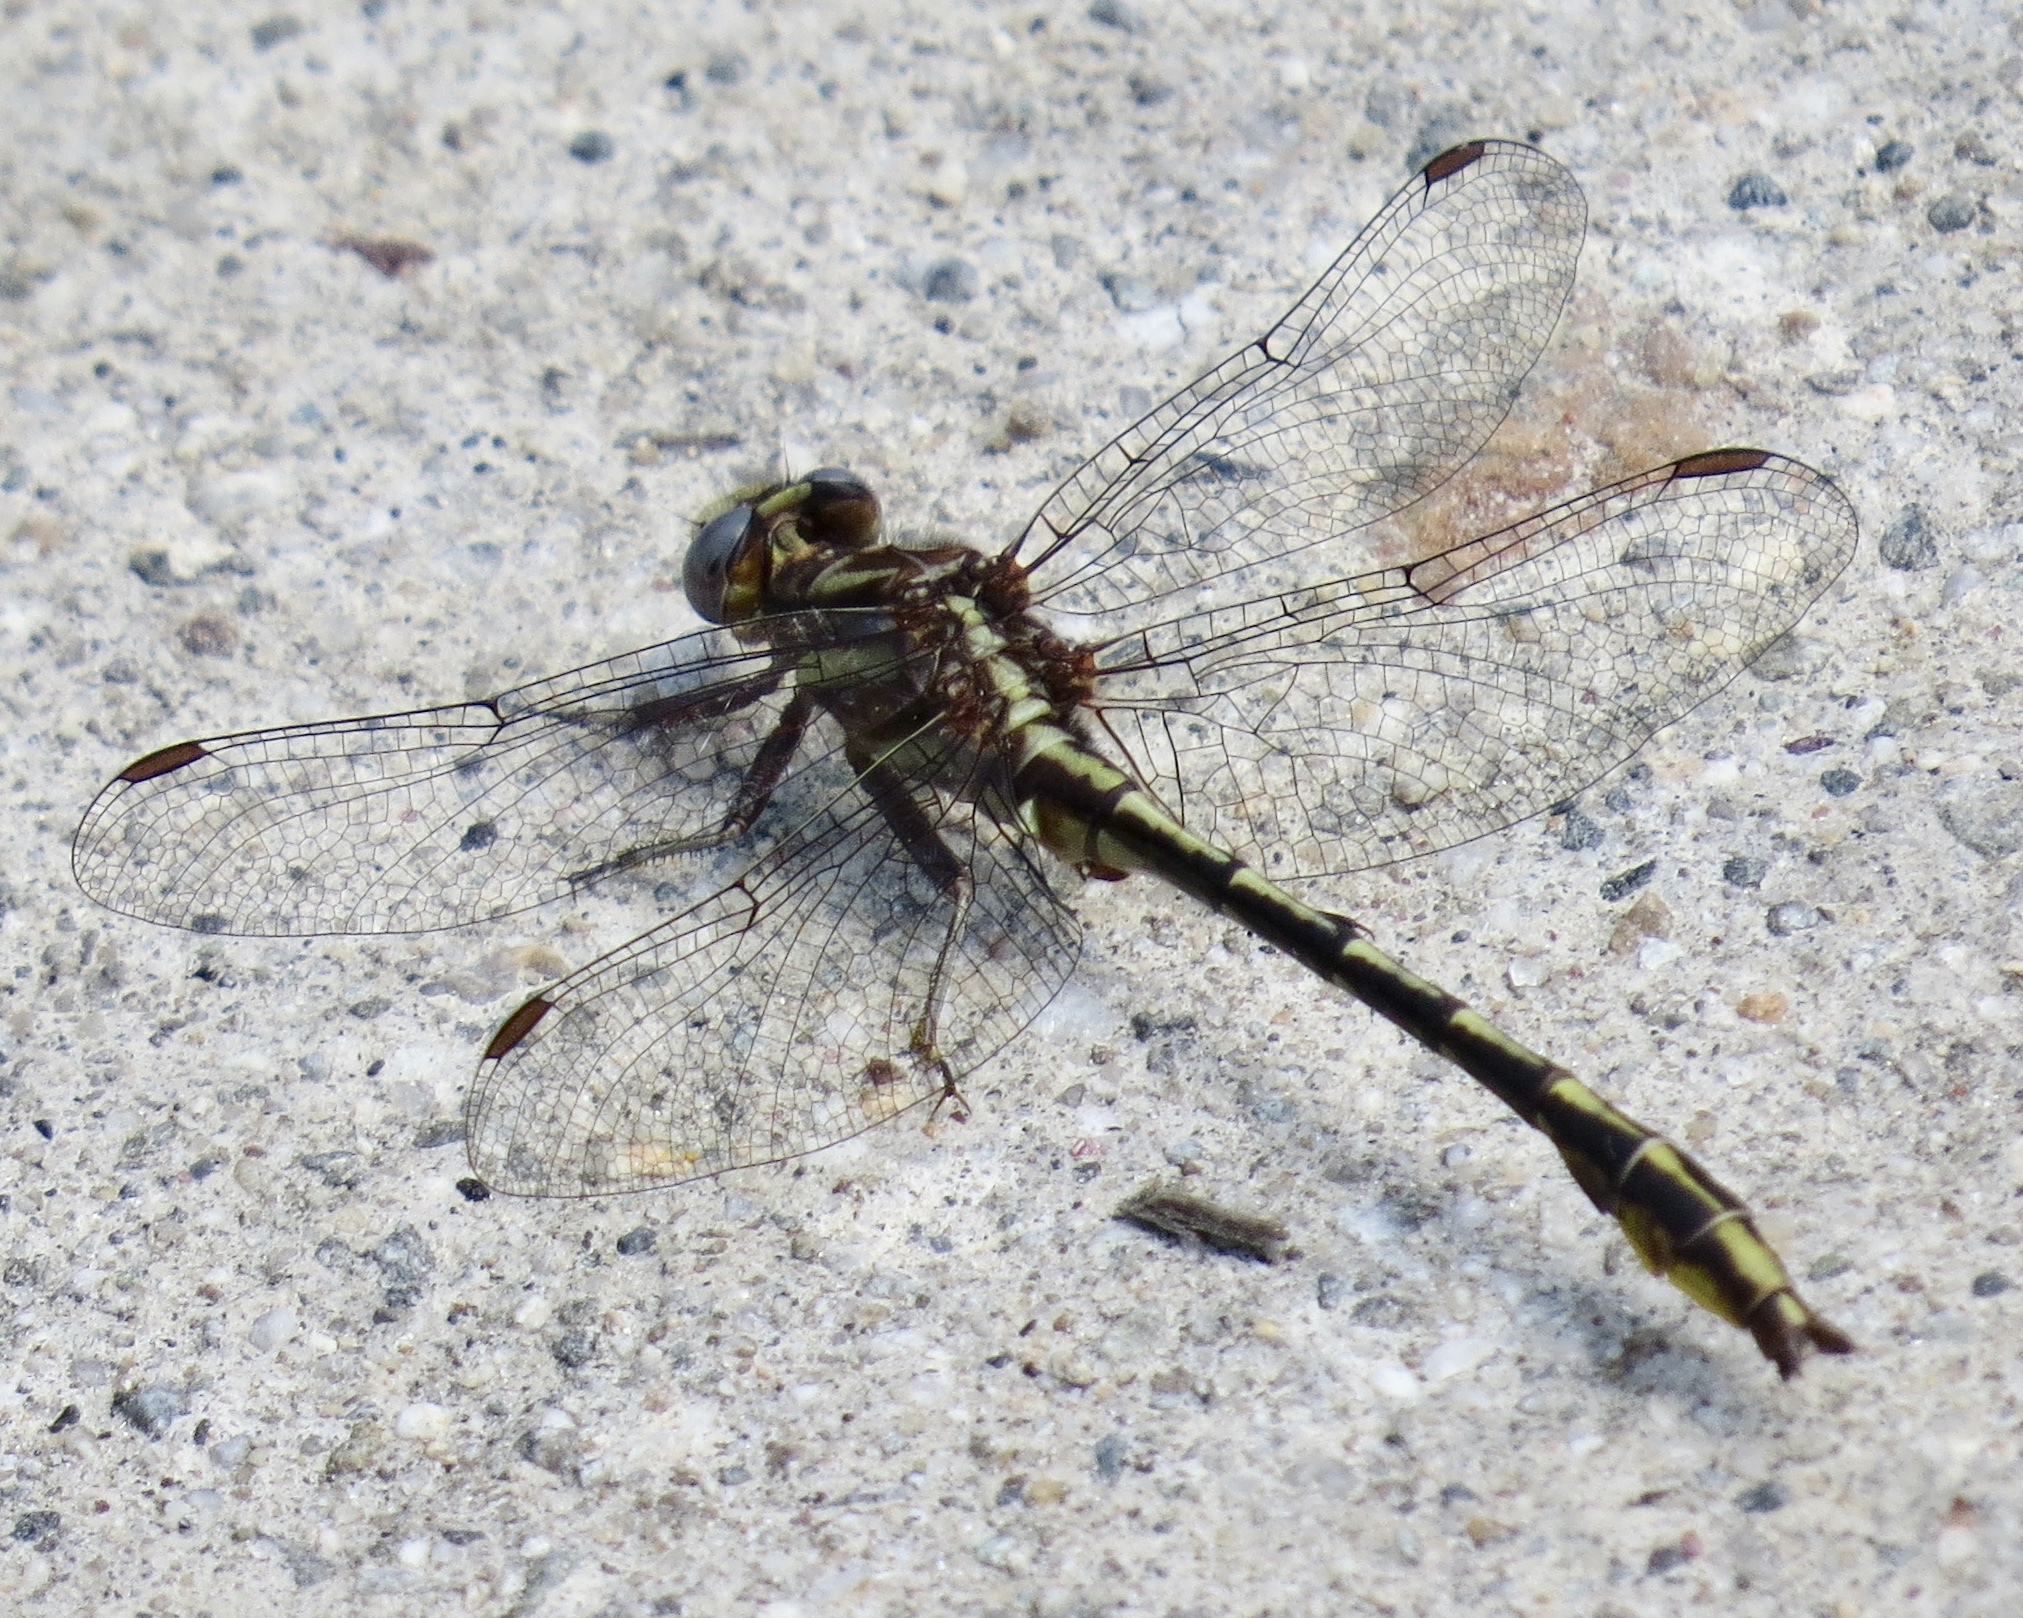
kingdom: Animalia
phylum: Arthropoda
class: Insecta
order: Odonata
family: Gomphidae
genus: Phanogomphus
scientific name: Phanogomphus exilis
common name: Lancet clubtail
